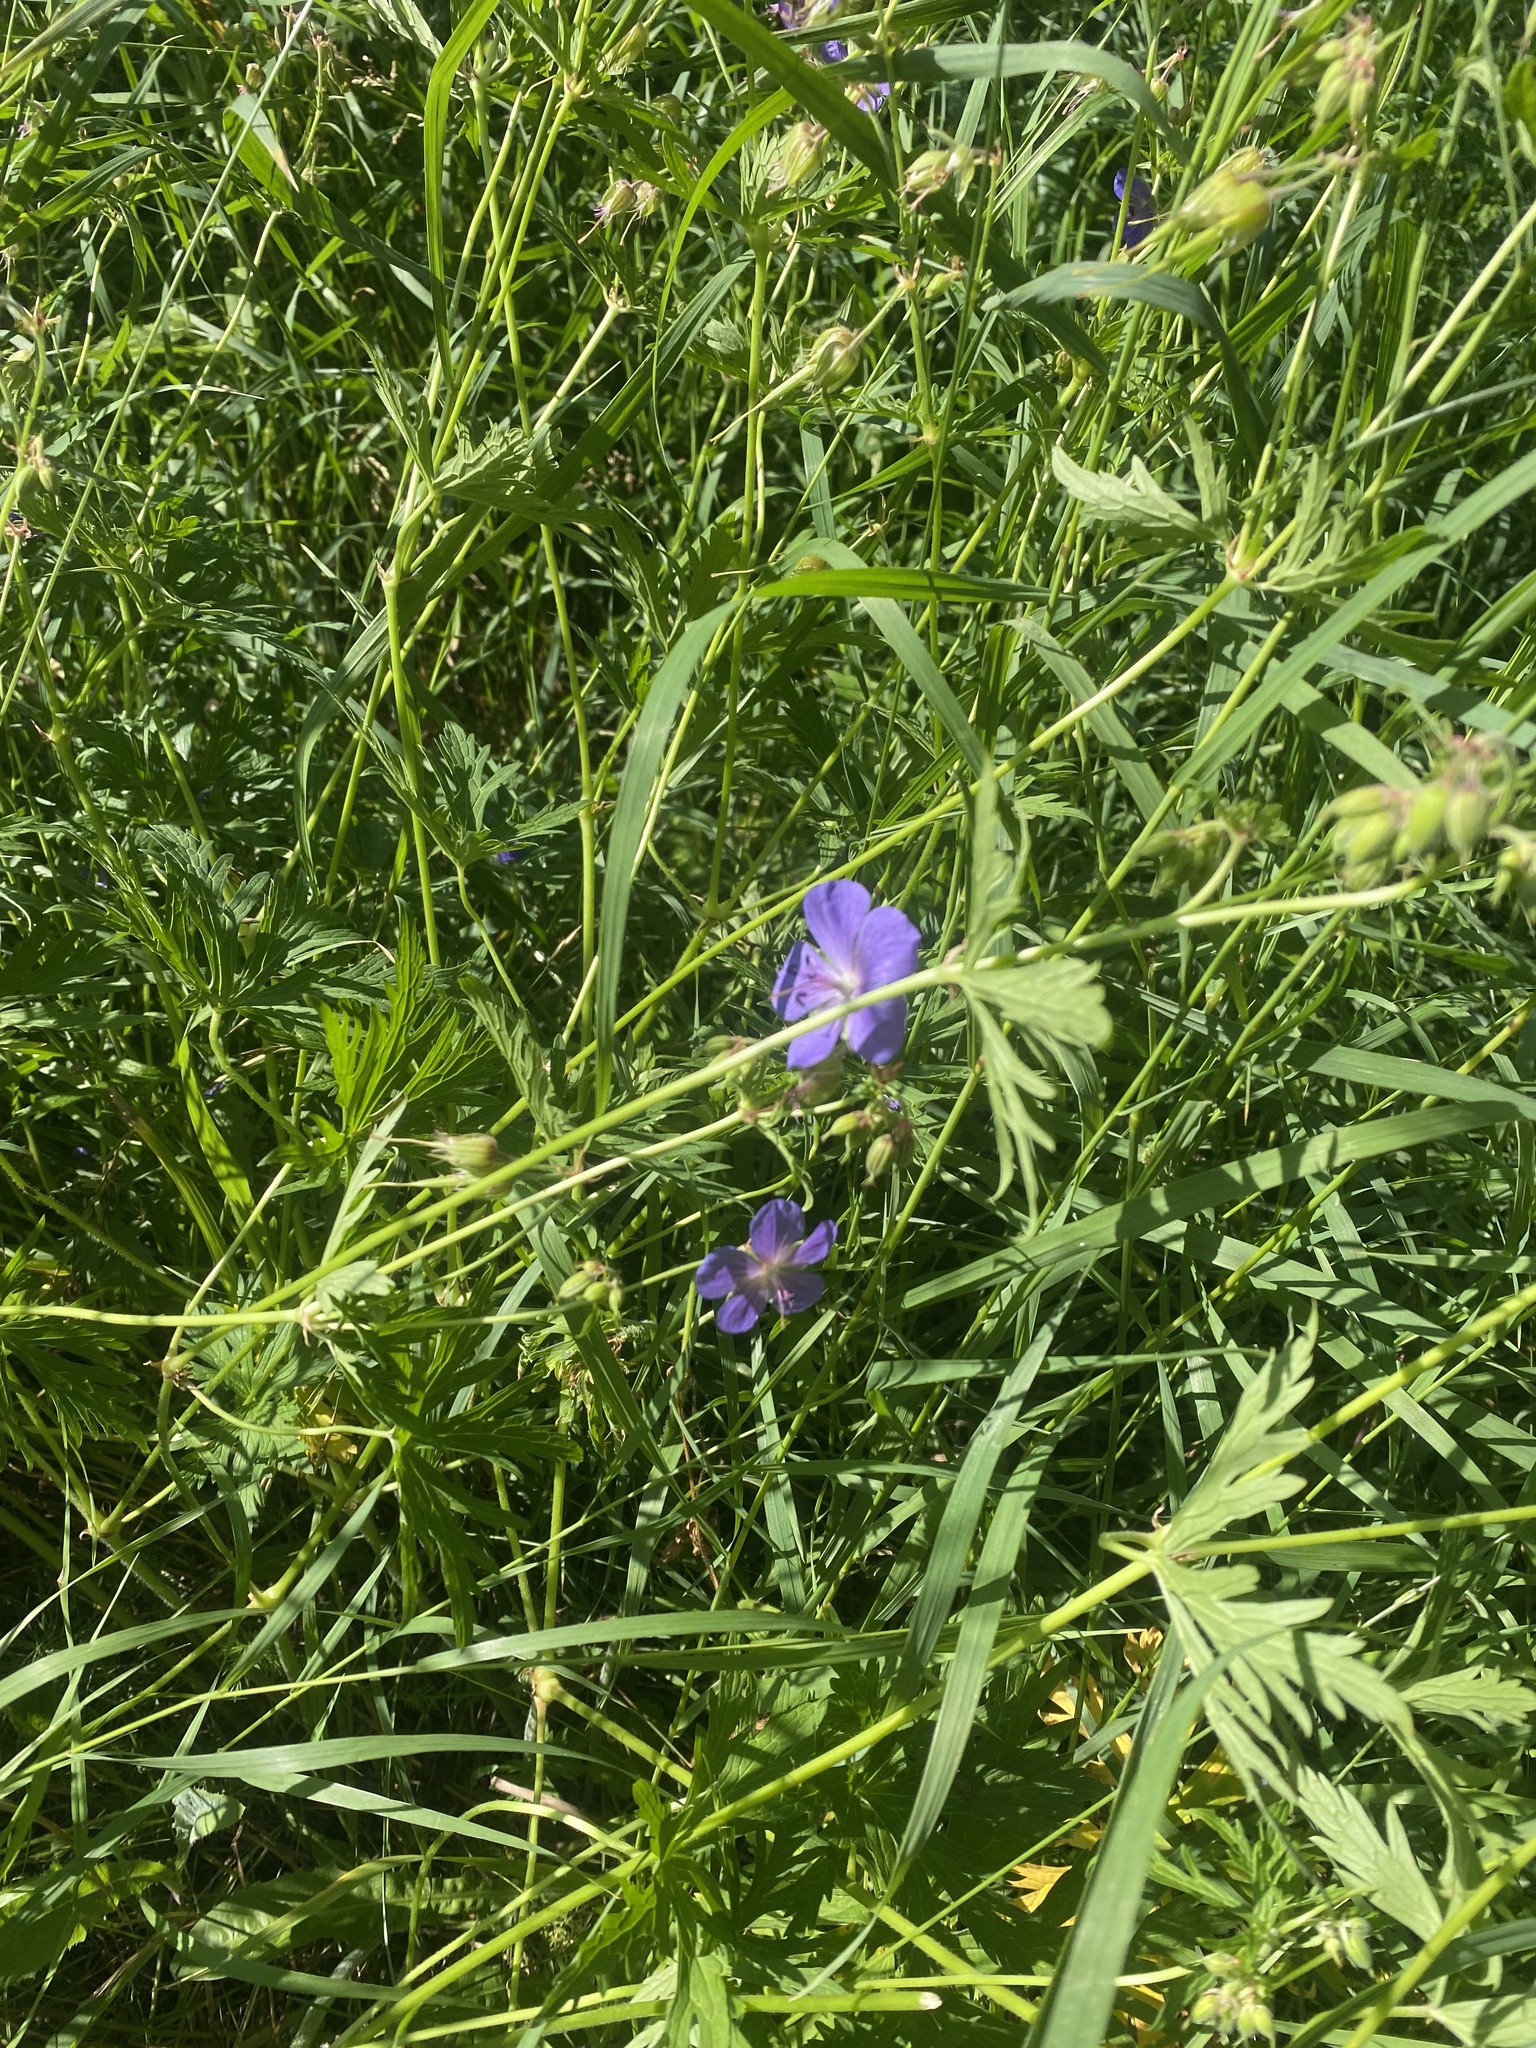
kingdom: Plantae
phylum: Tracheophyta
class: Magnoliopsida
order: Geraniales
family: Geraniaceae
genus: Geranium
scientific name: Geranium pratense
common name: Meadow crane's-bill
